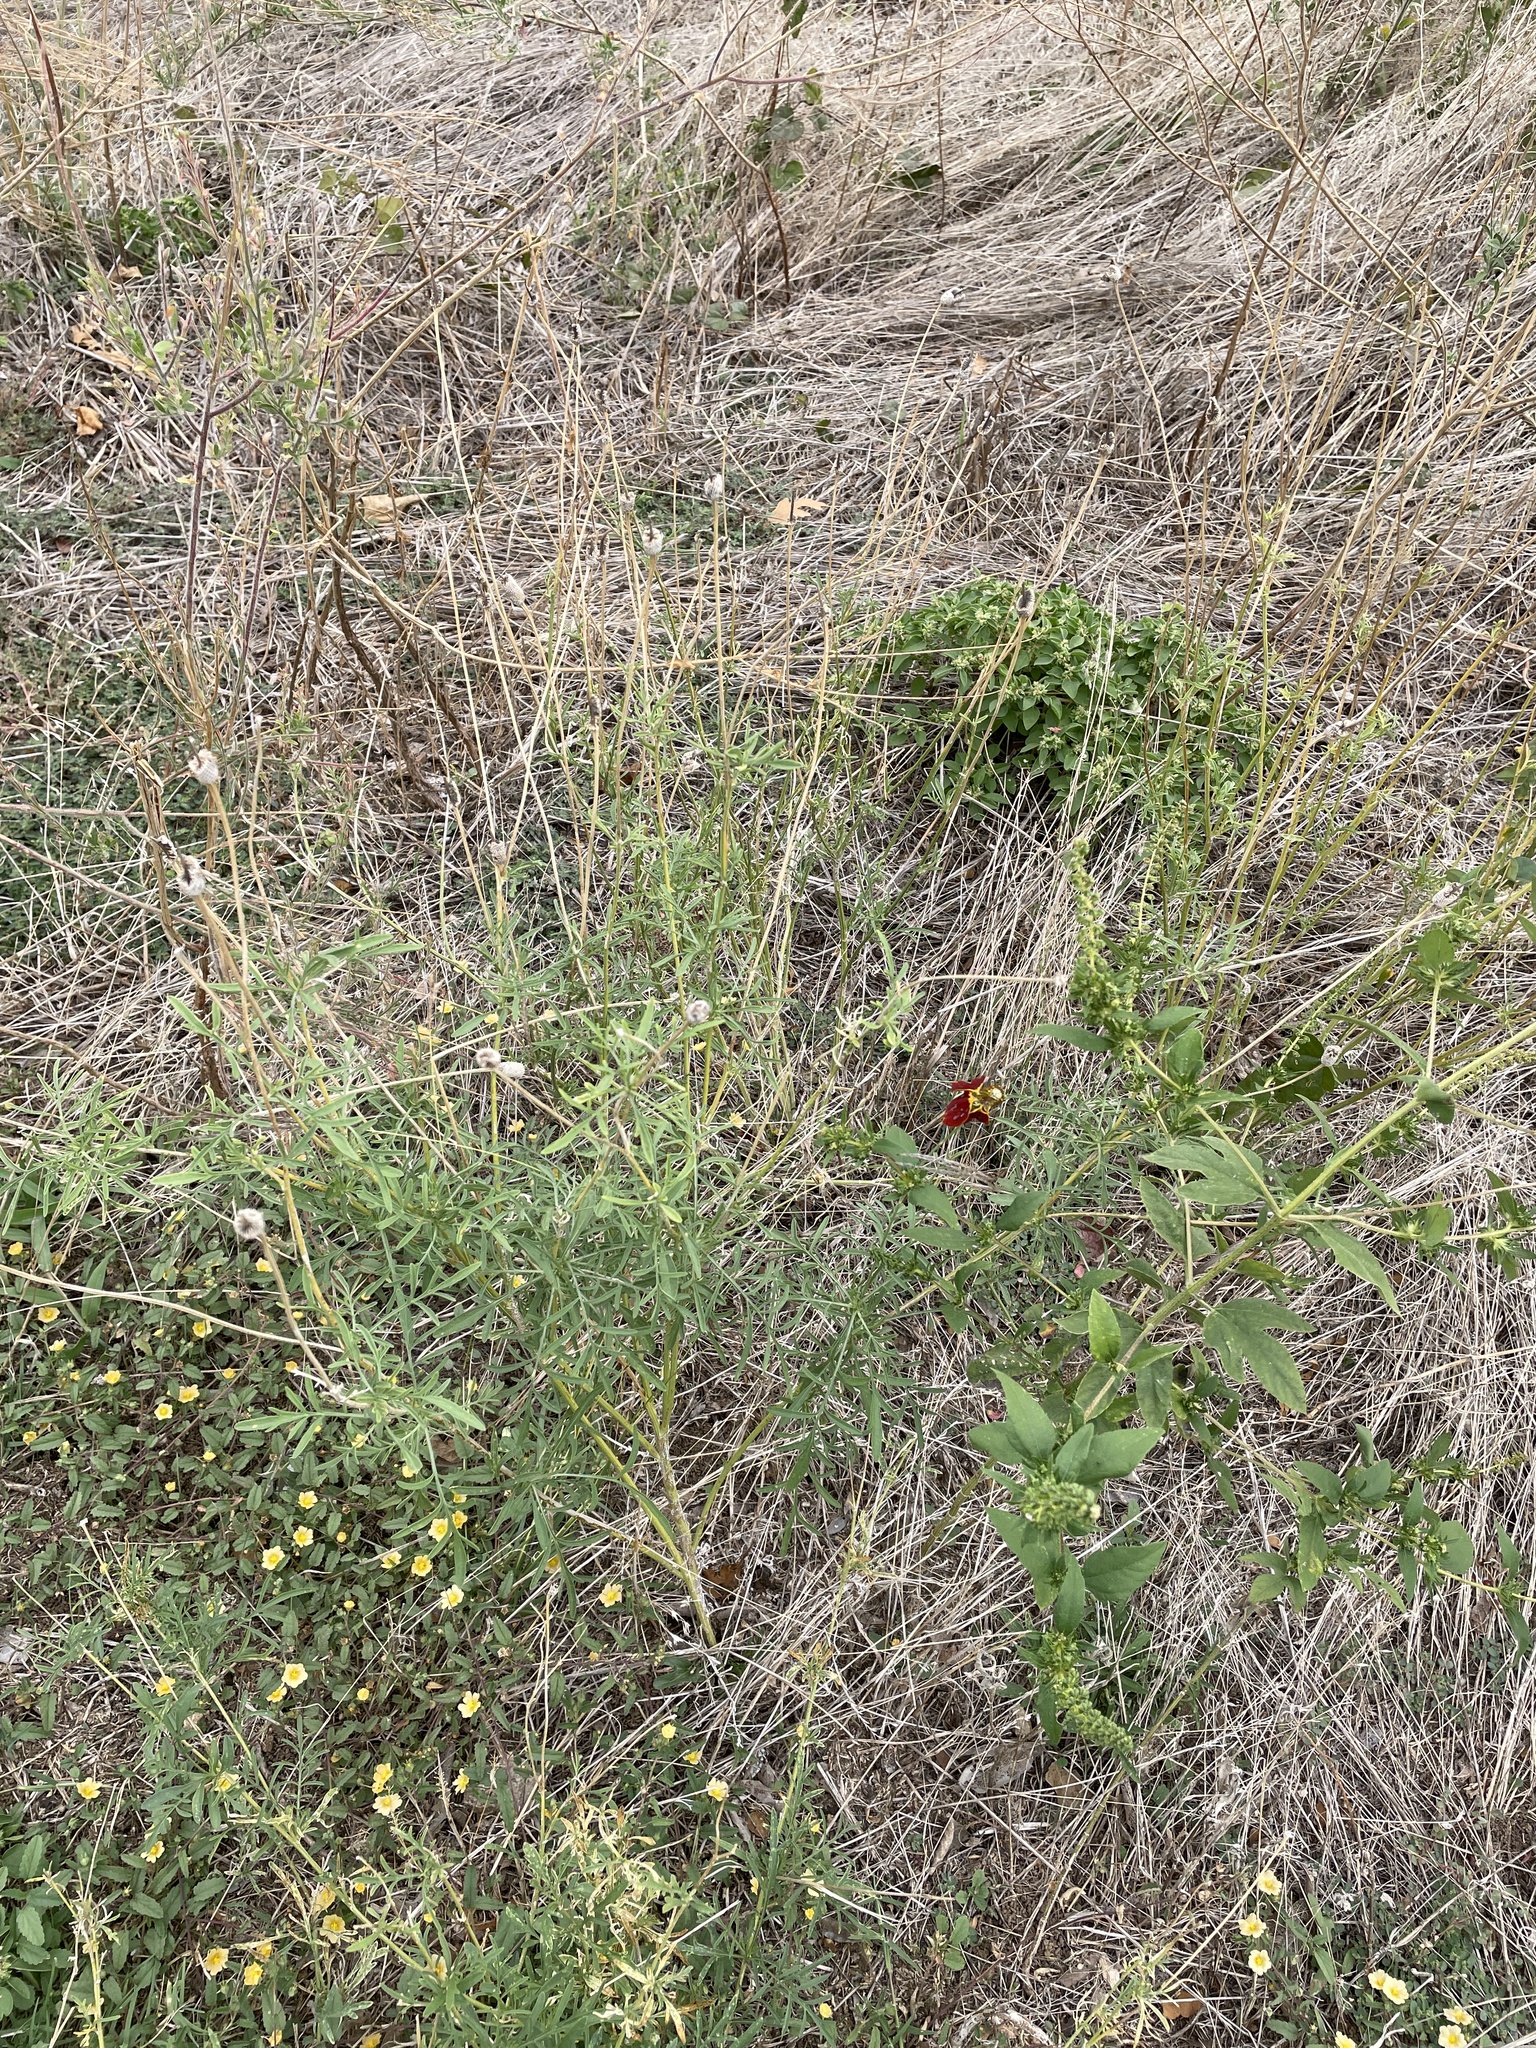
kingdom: Plantae
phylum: Tracheophyta
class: Magnoliopsida
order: Asterales
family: Asteraceae
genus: Ratibida
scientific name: Ratibida columnifera
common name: Prairie coneflower
